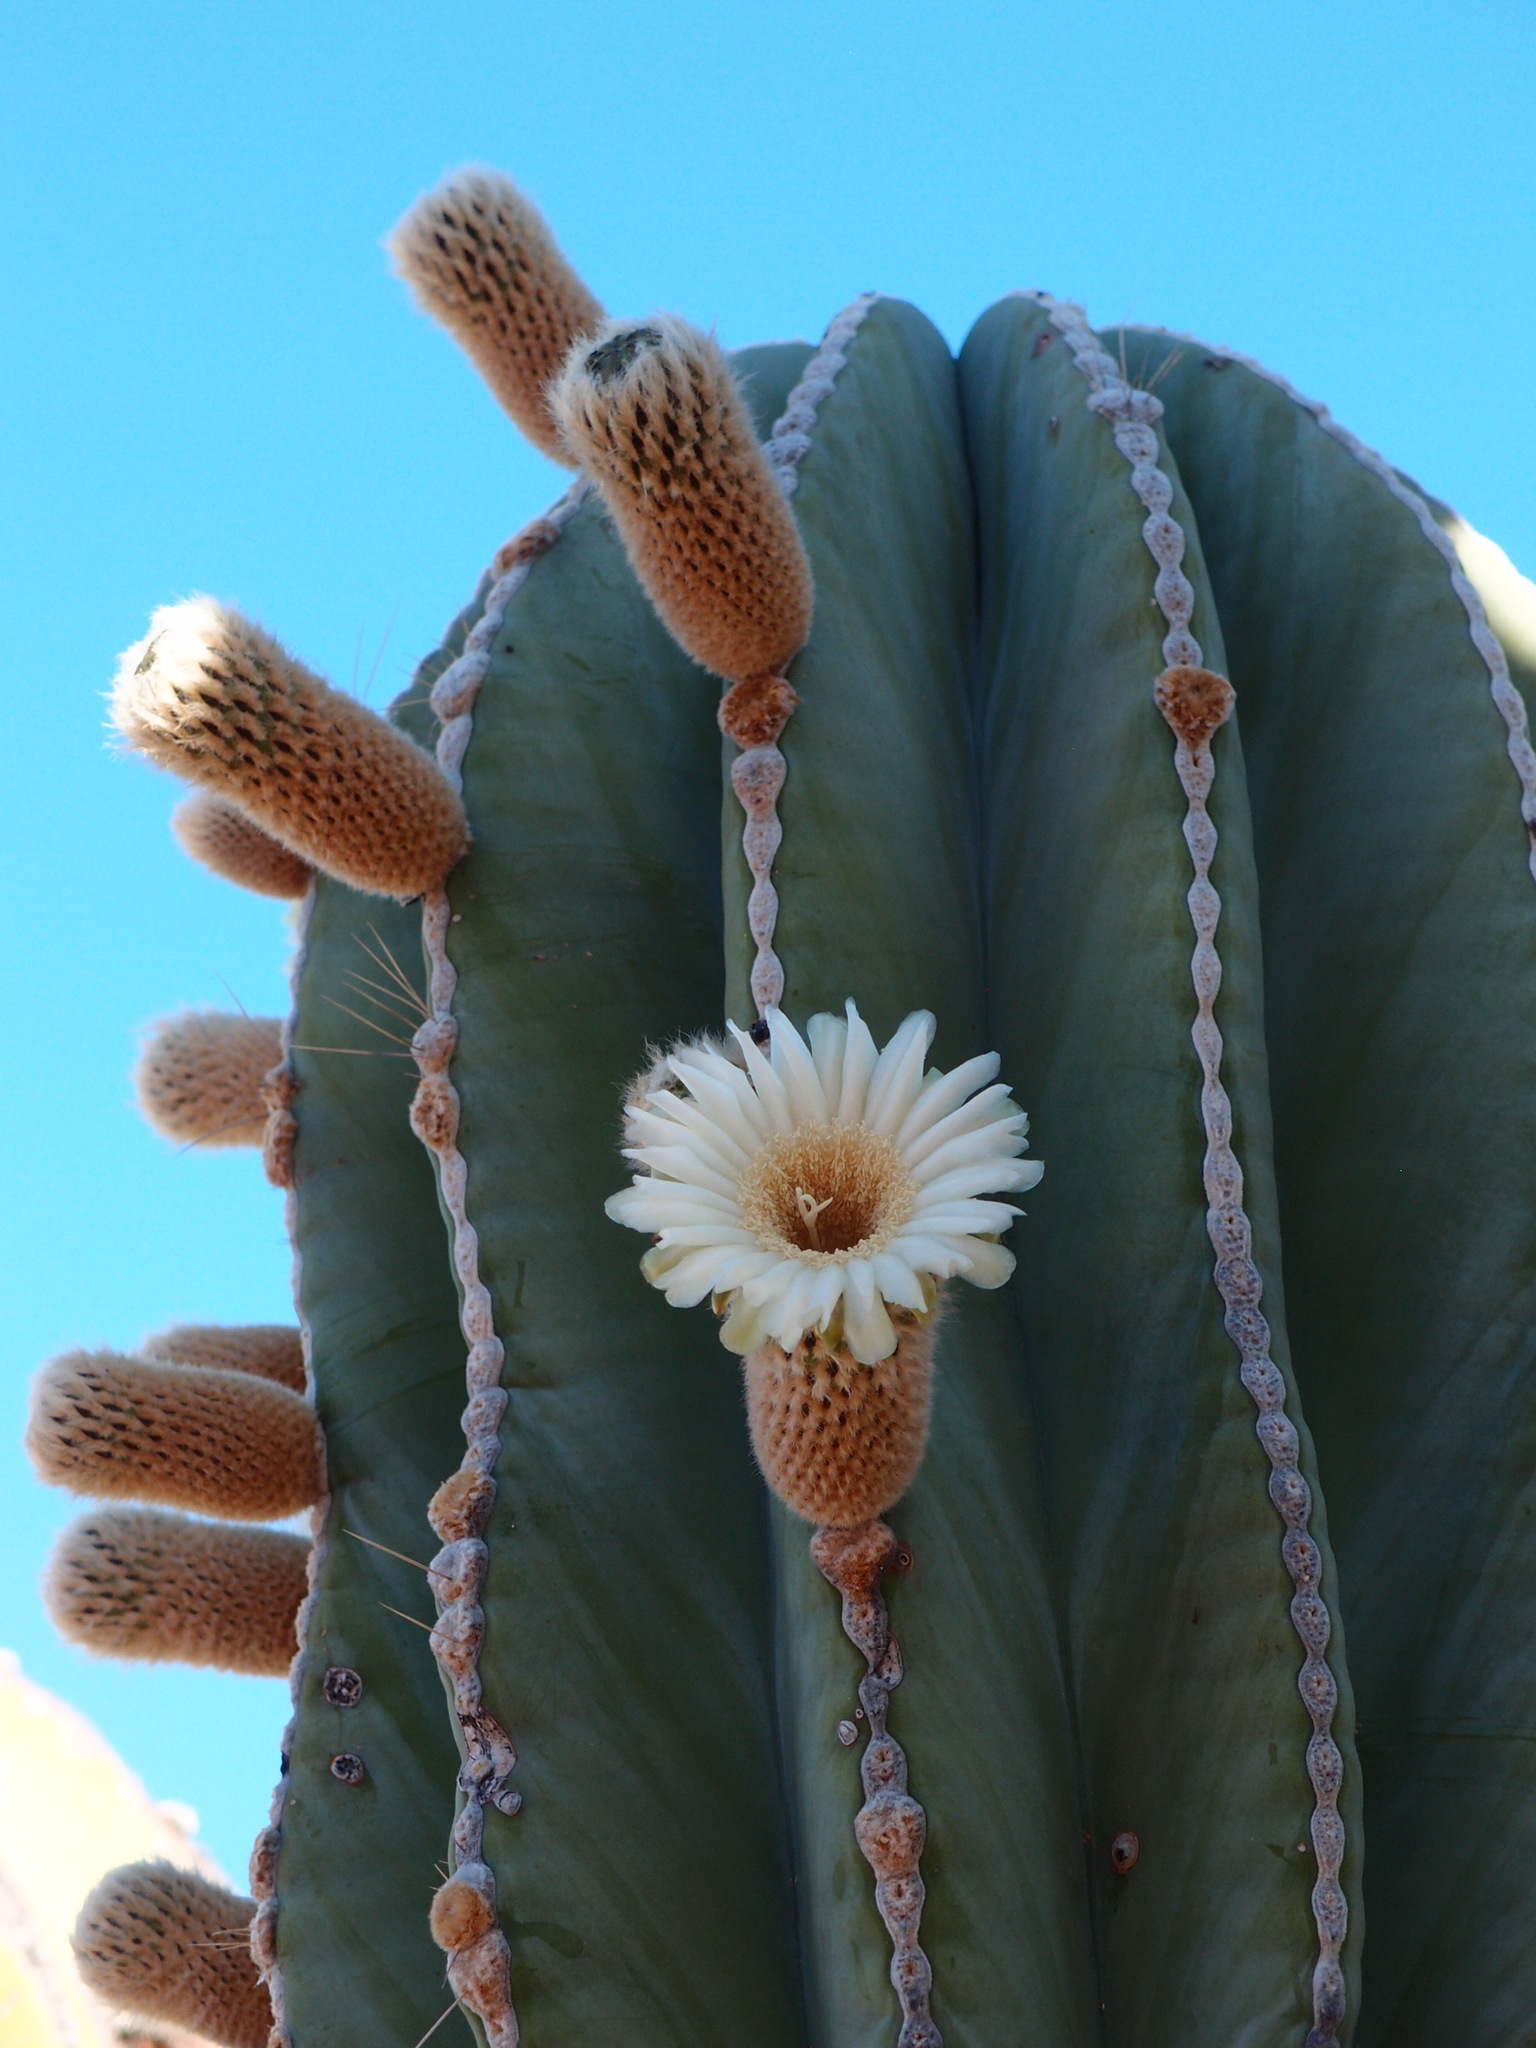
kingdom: Plantae
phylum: Tracheophyta
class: Magnoliopsida
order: Caryophyllales
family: Cactaceae
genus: Pachycereus
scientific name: Pachycereus pringlei
